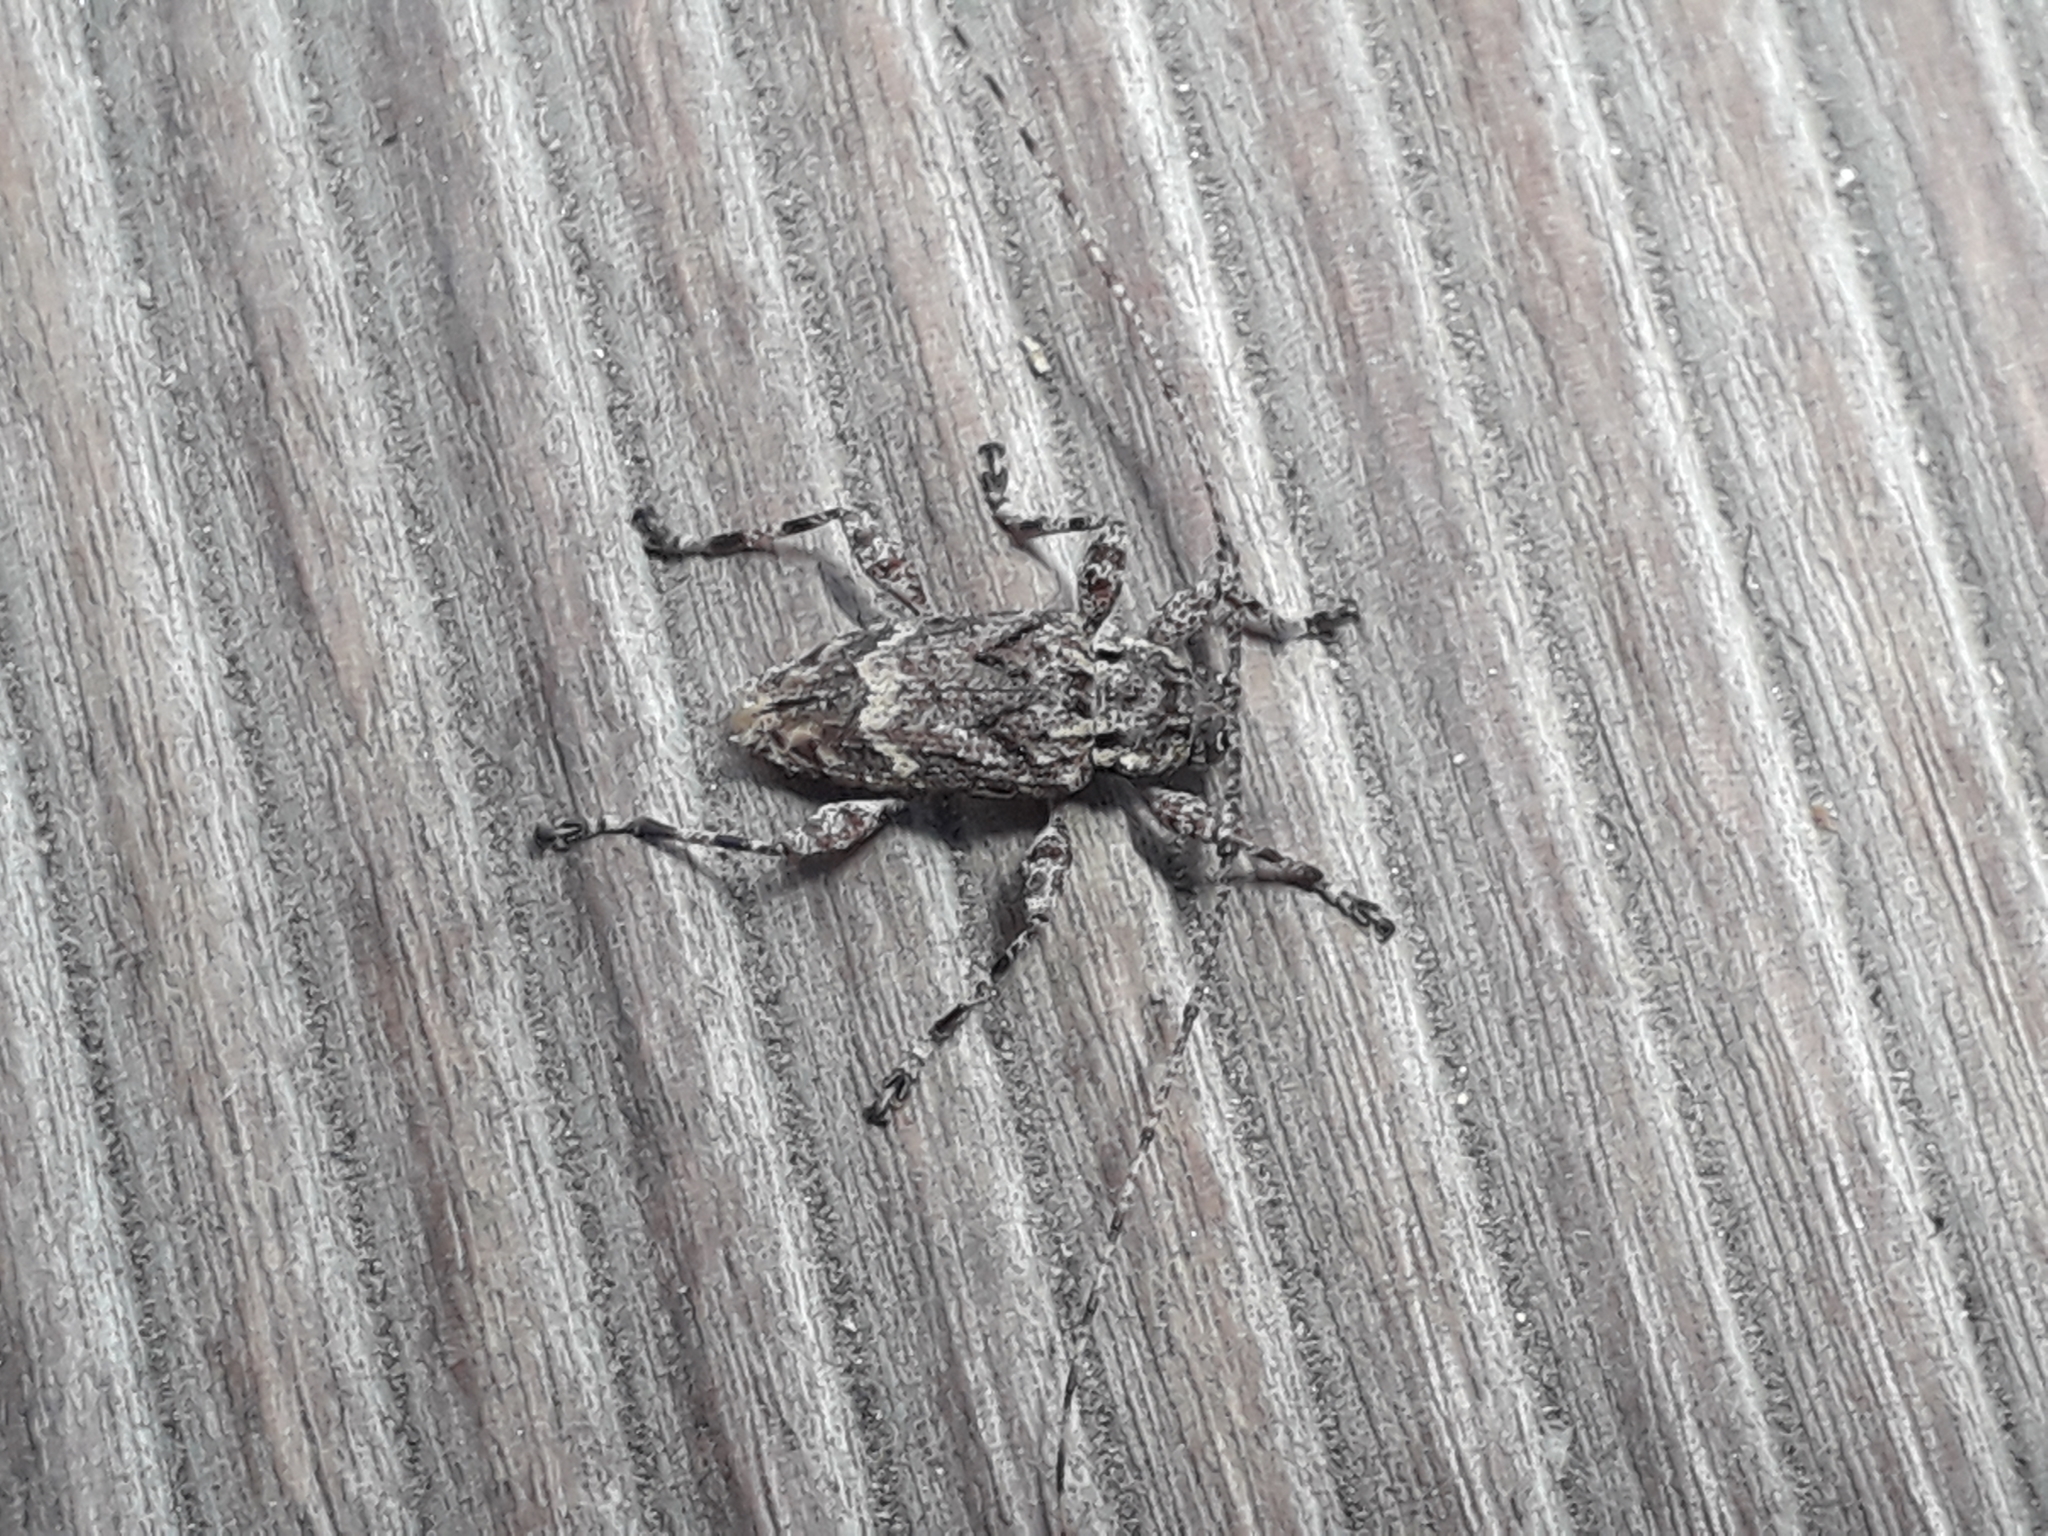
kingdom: Animalia
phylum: Arthropoda
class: Insecta
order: Coleoptera
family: Cerambycidae
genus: Amniscus
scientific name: Amniscus assimilis
